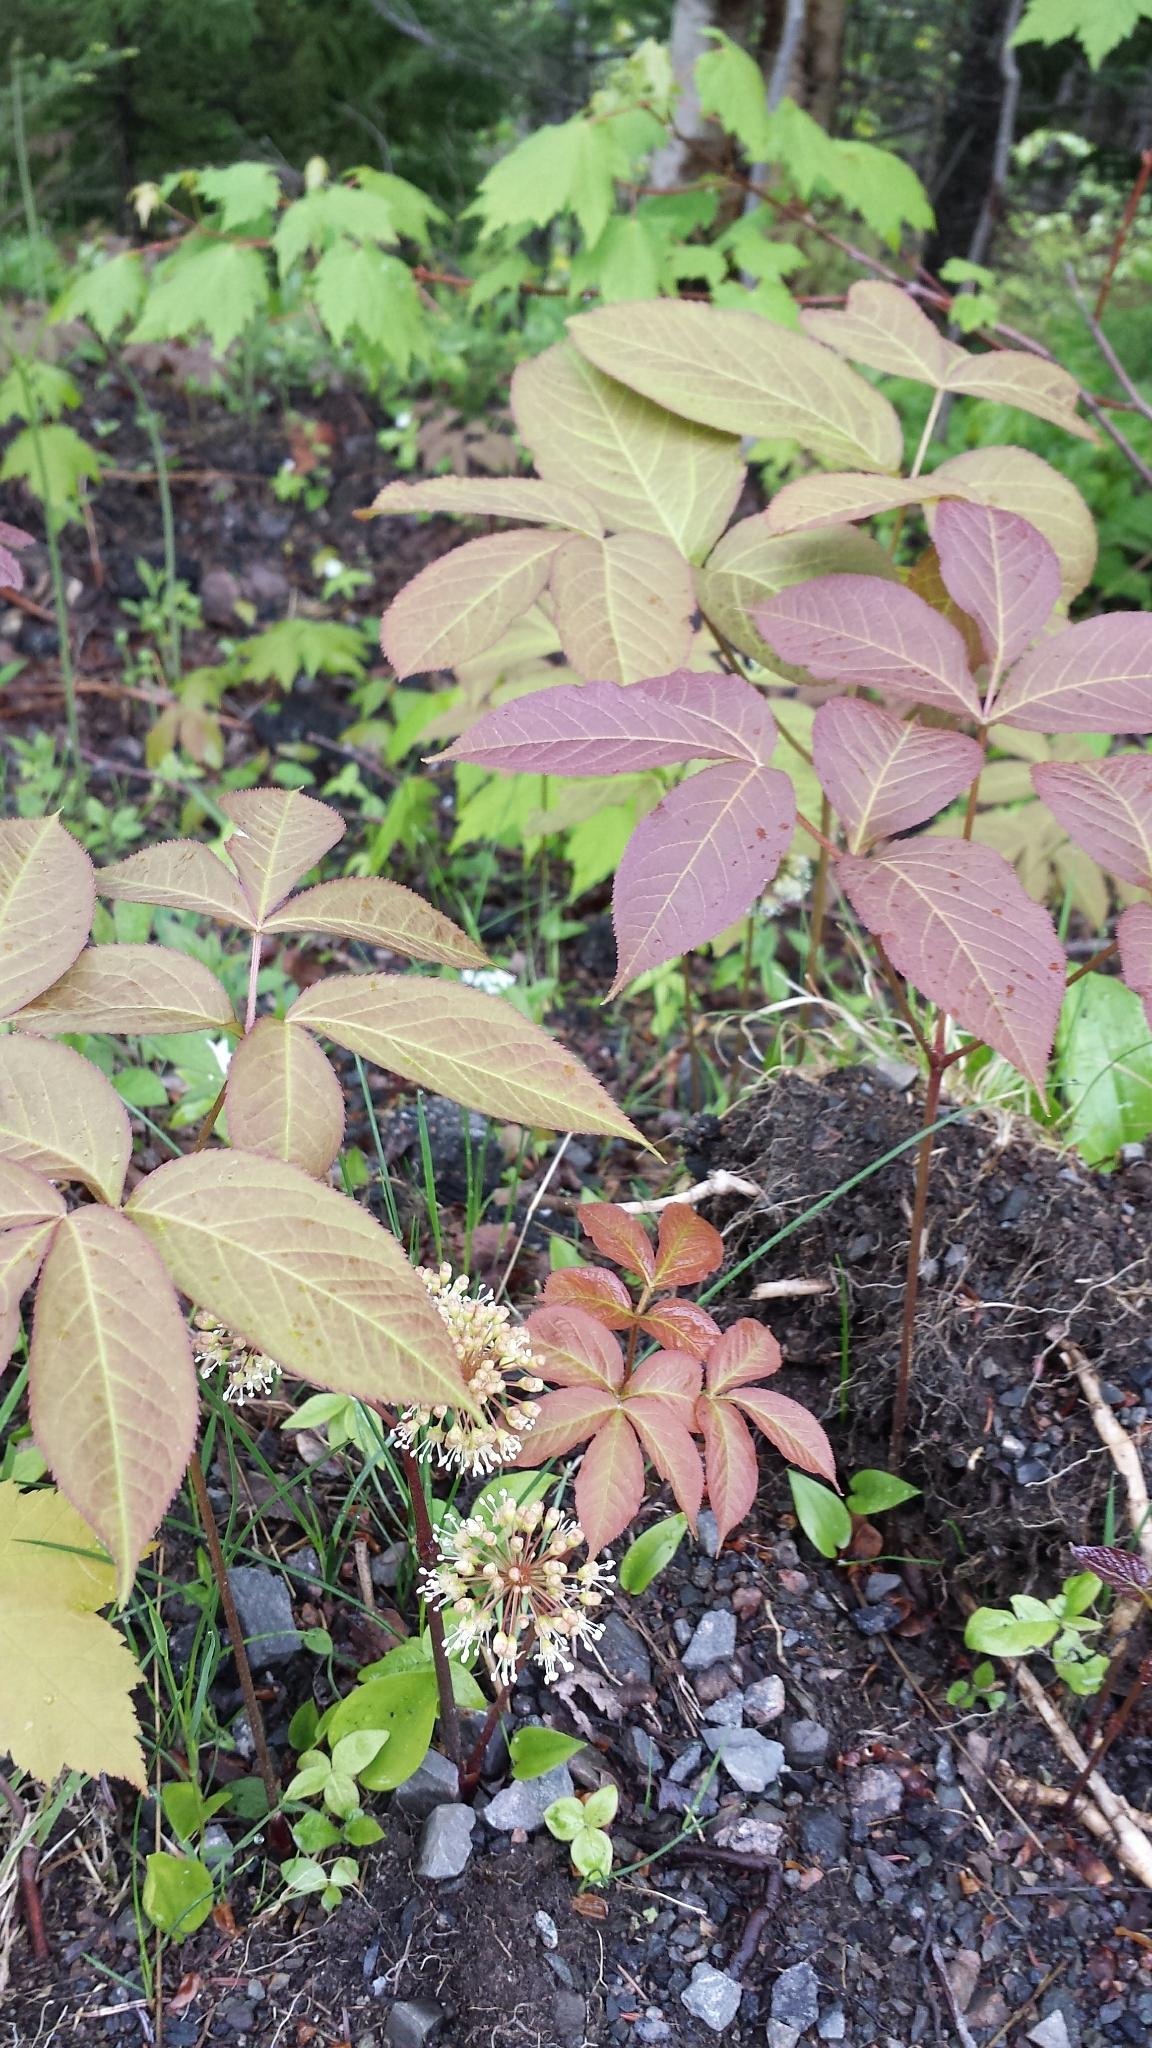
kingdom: Plantae
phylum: Tracheophyta
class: Magnoliopsida
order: Apiales
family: Araliaceae
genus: Aralia
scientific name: Aralia nudicaulis
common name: Wild sarsaparilla
